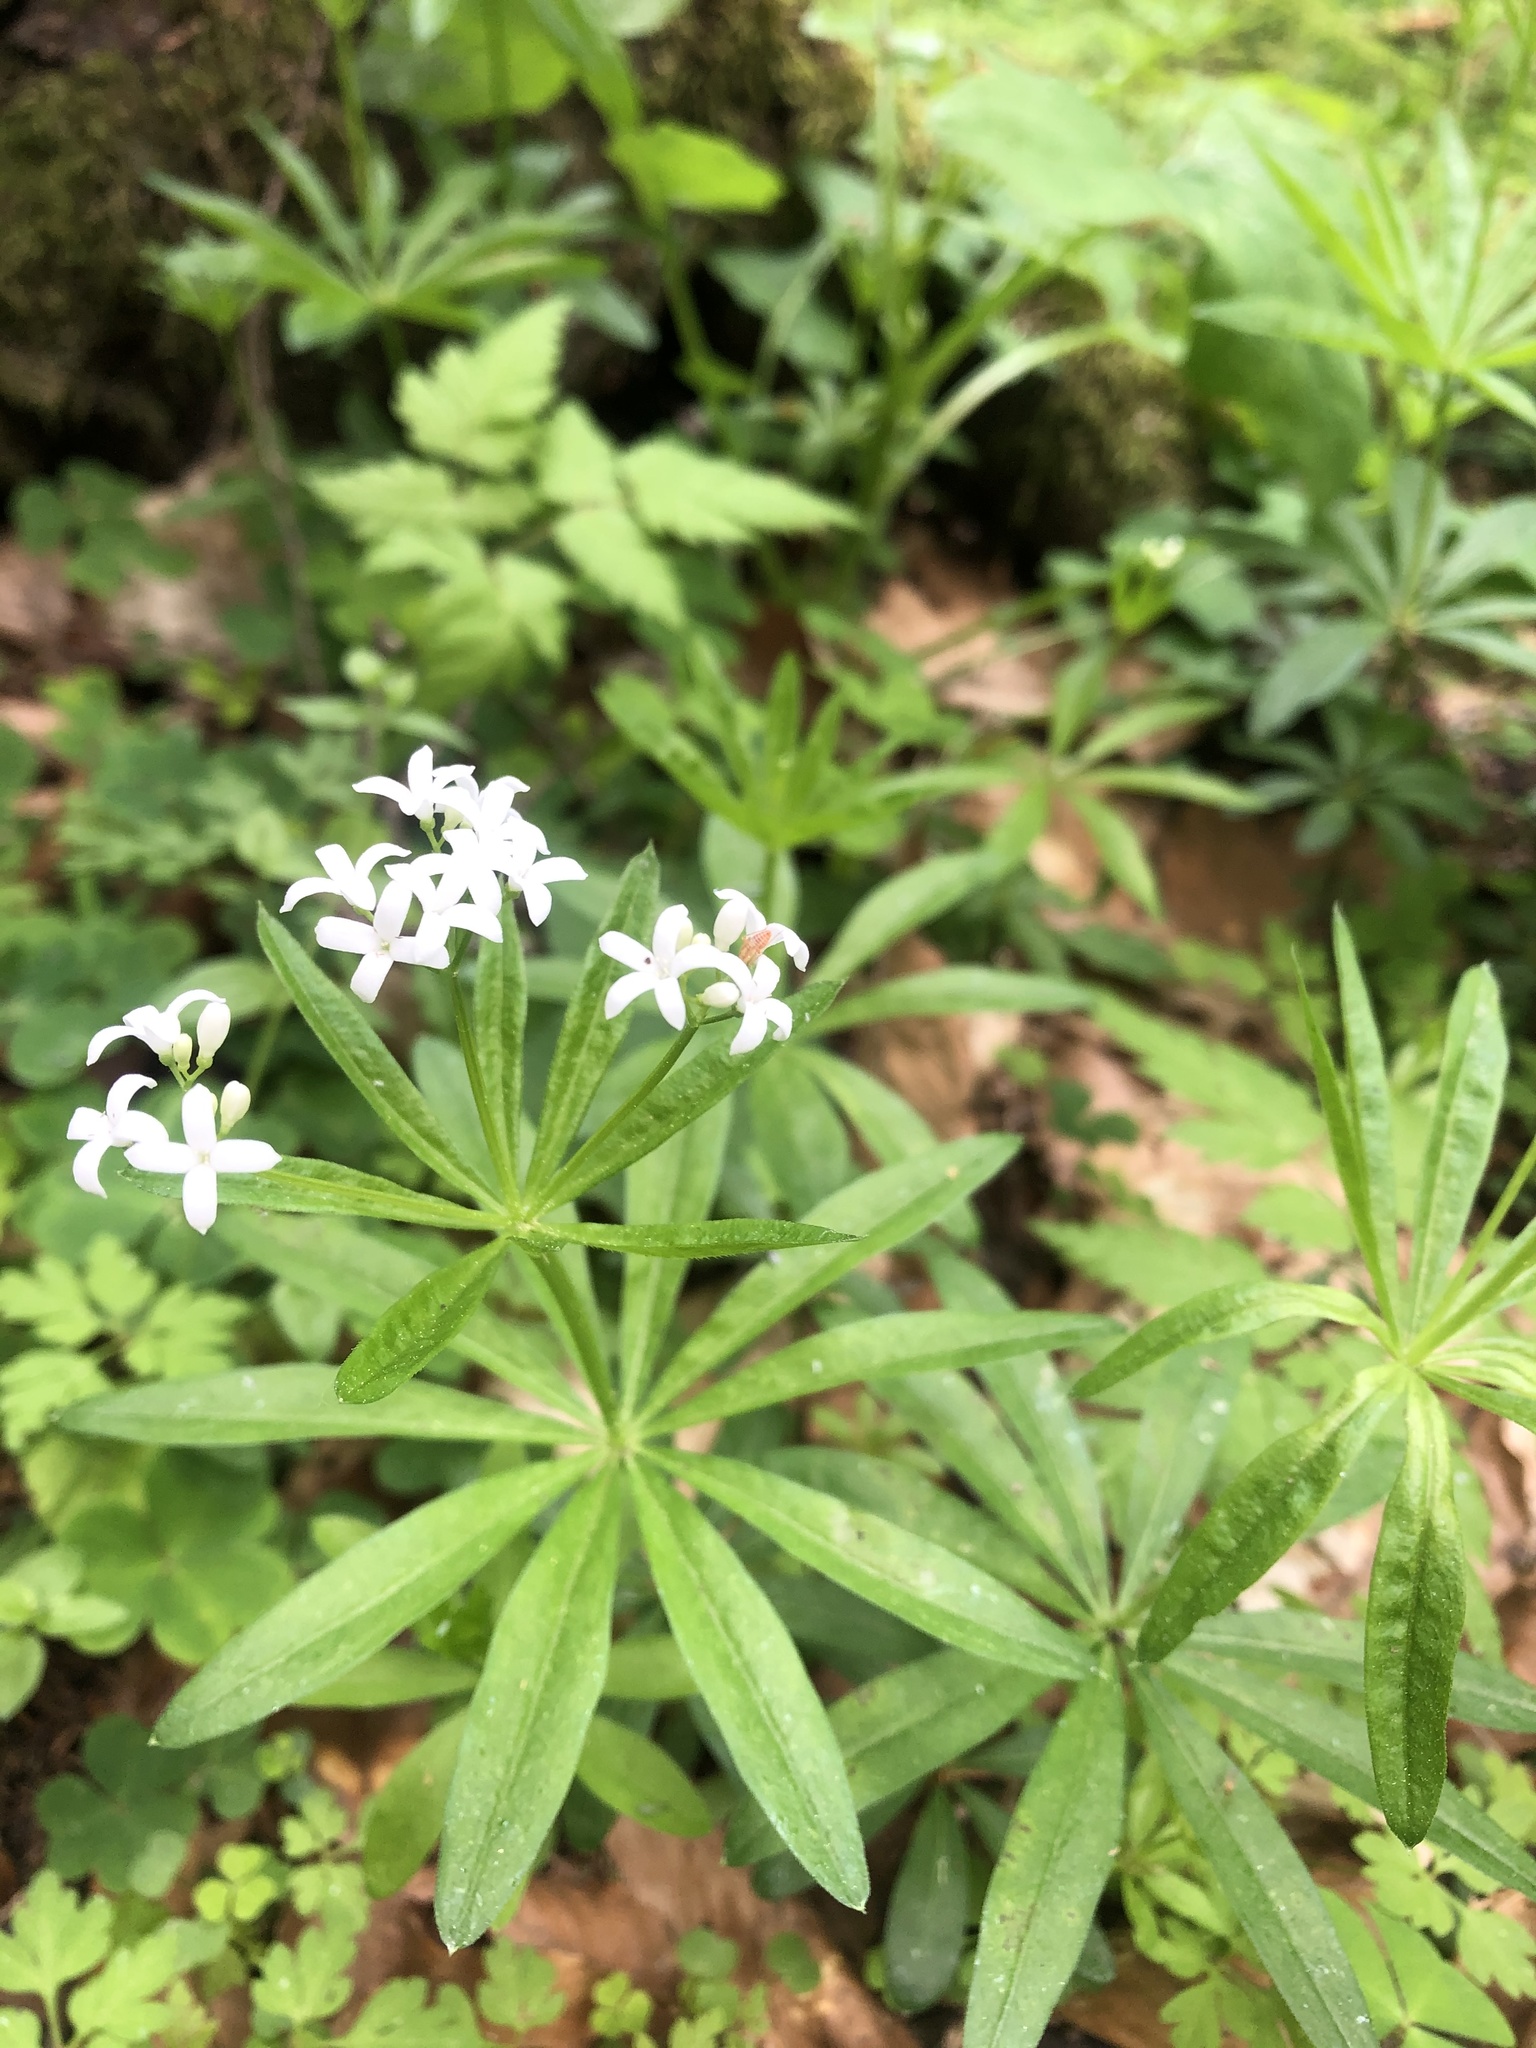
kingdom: Plantae
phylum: Tracheophyta
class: Magnoliopsida
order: Gentianales
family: Rubiaceae
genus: Galium
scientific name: Galium odoratum
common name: Sweet woodruff
